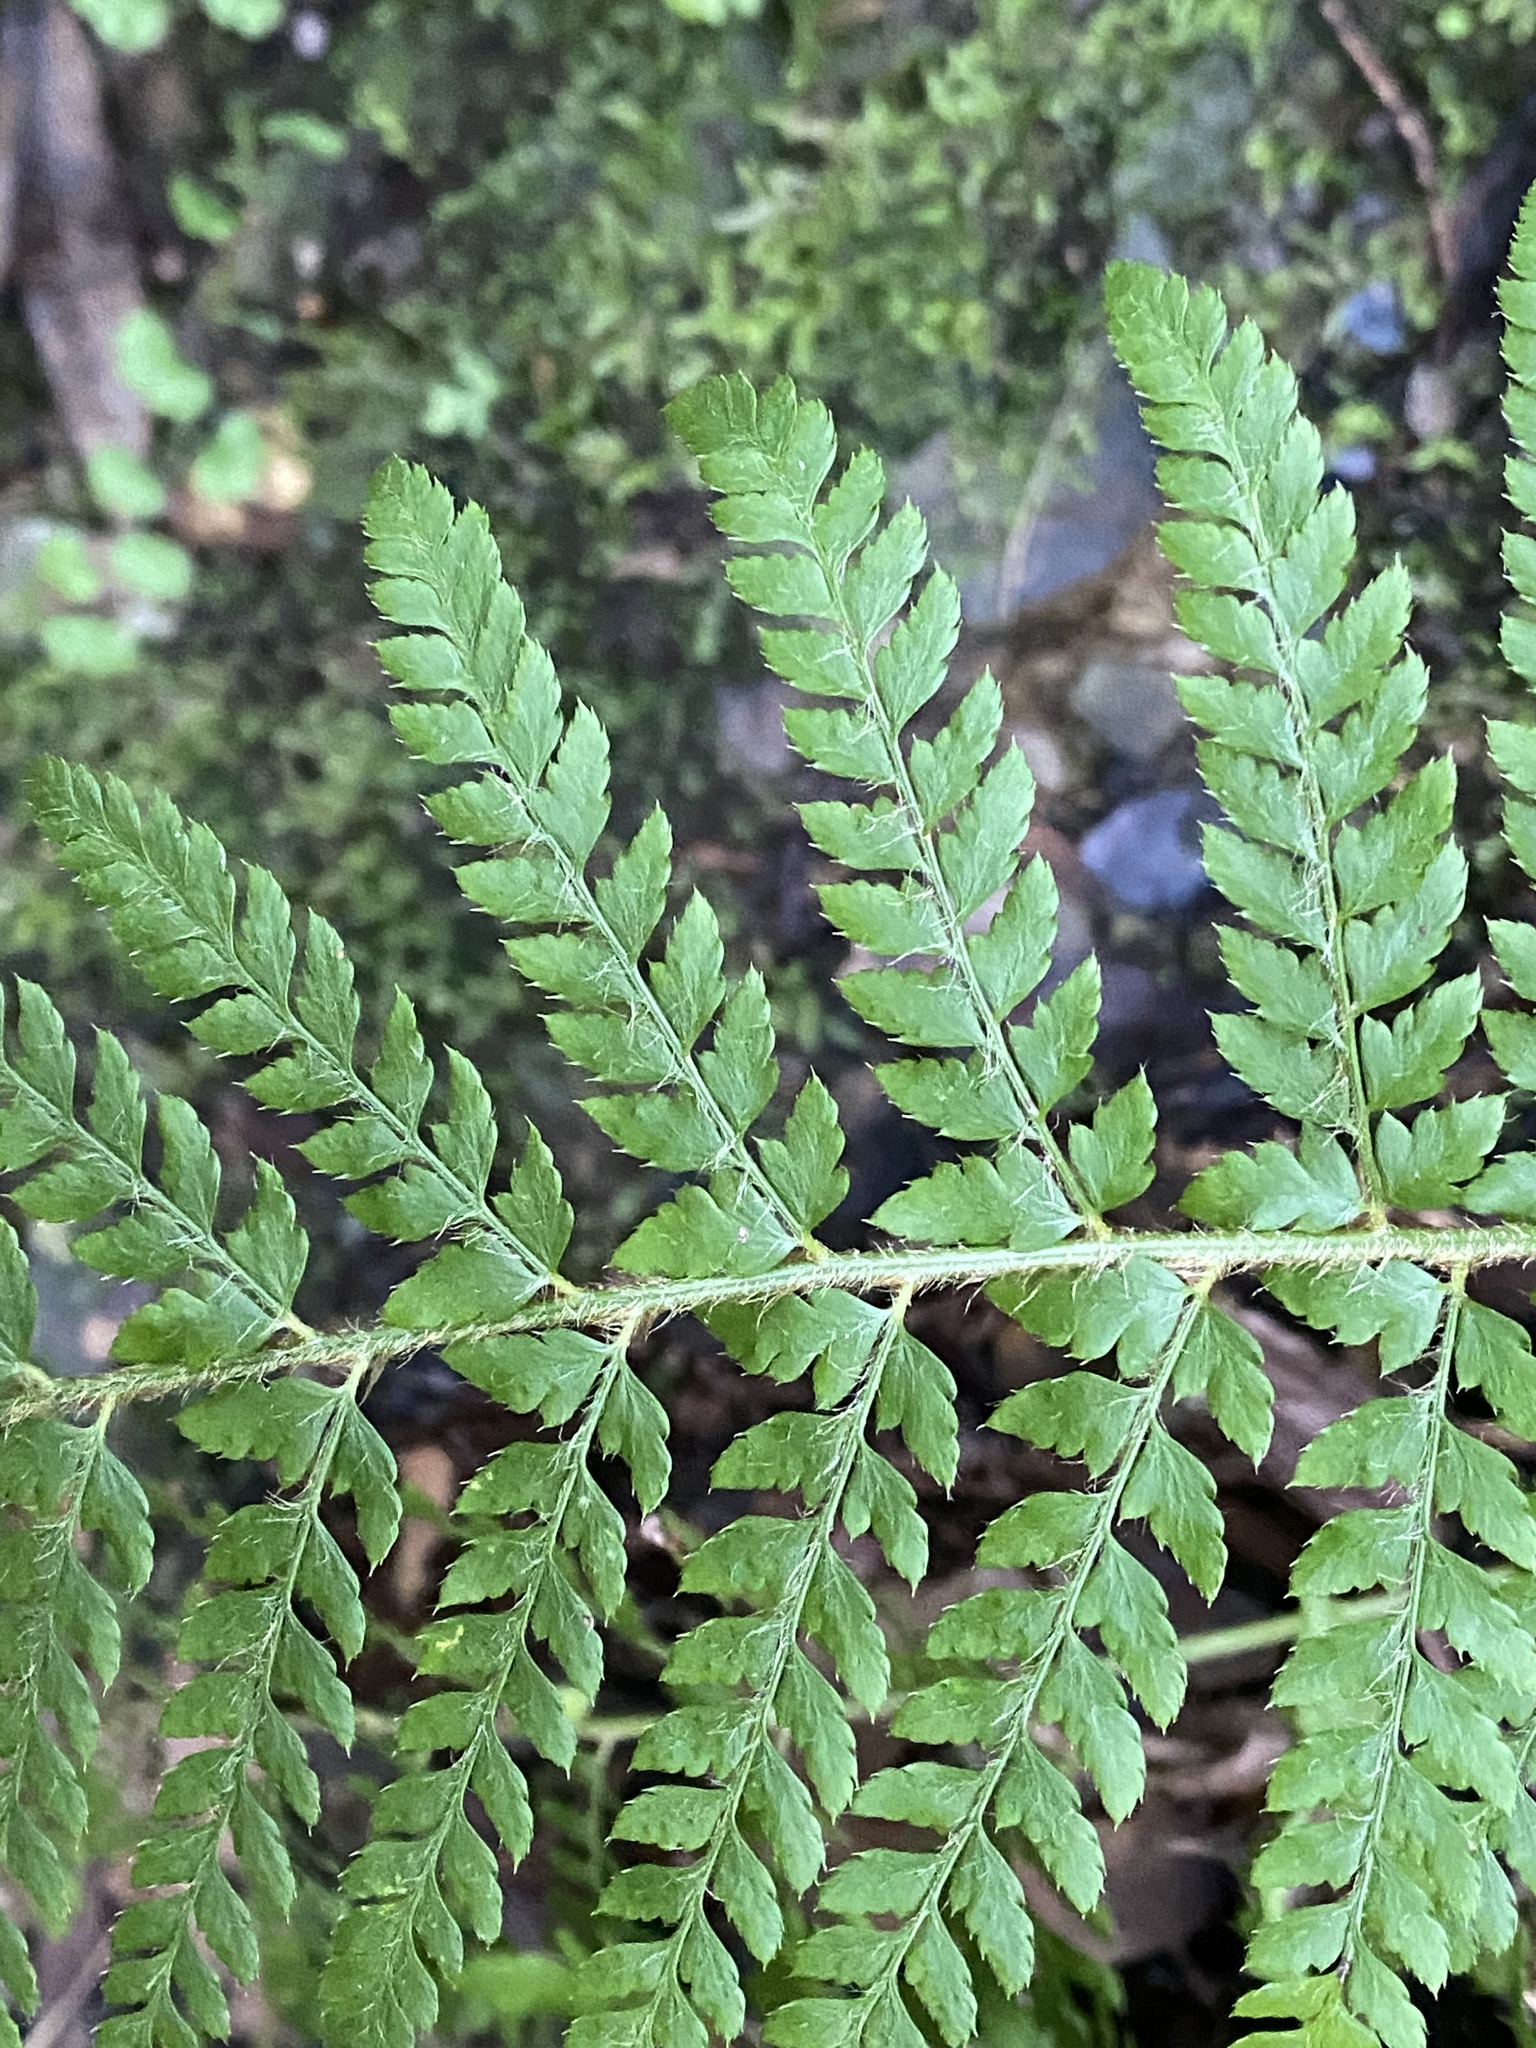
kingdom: Plantae
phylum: Tracheophyta
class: Polypodiopsida
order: Polypodiales
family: Dryopteridaceae
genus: Polystichum
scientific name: Polystichum dudleyi
